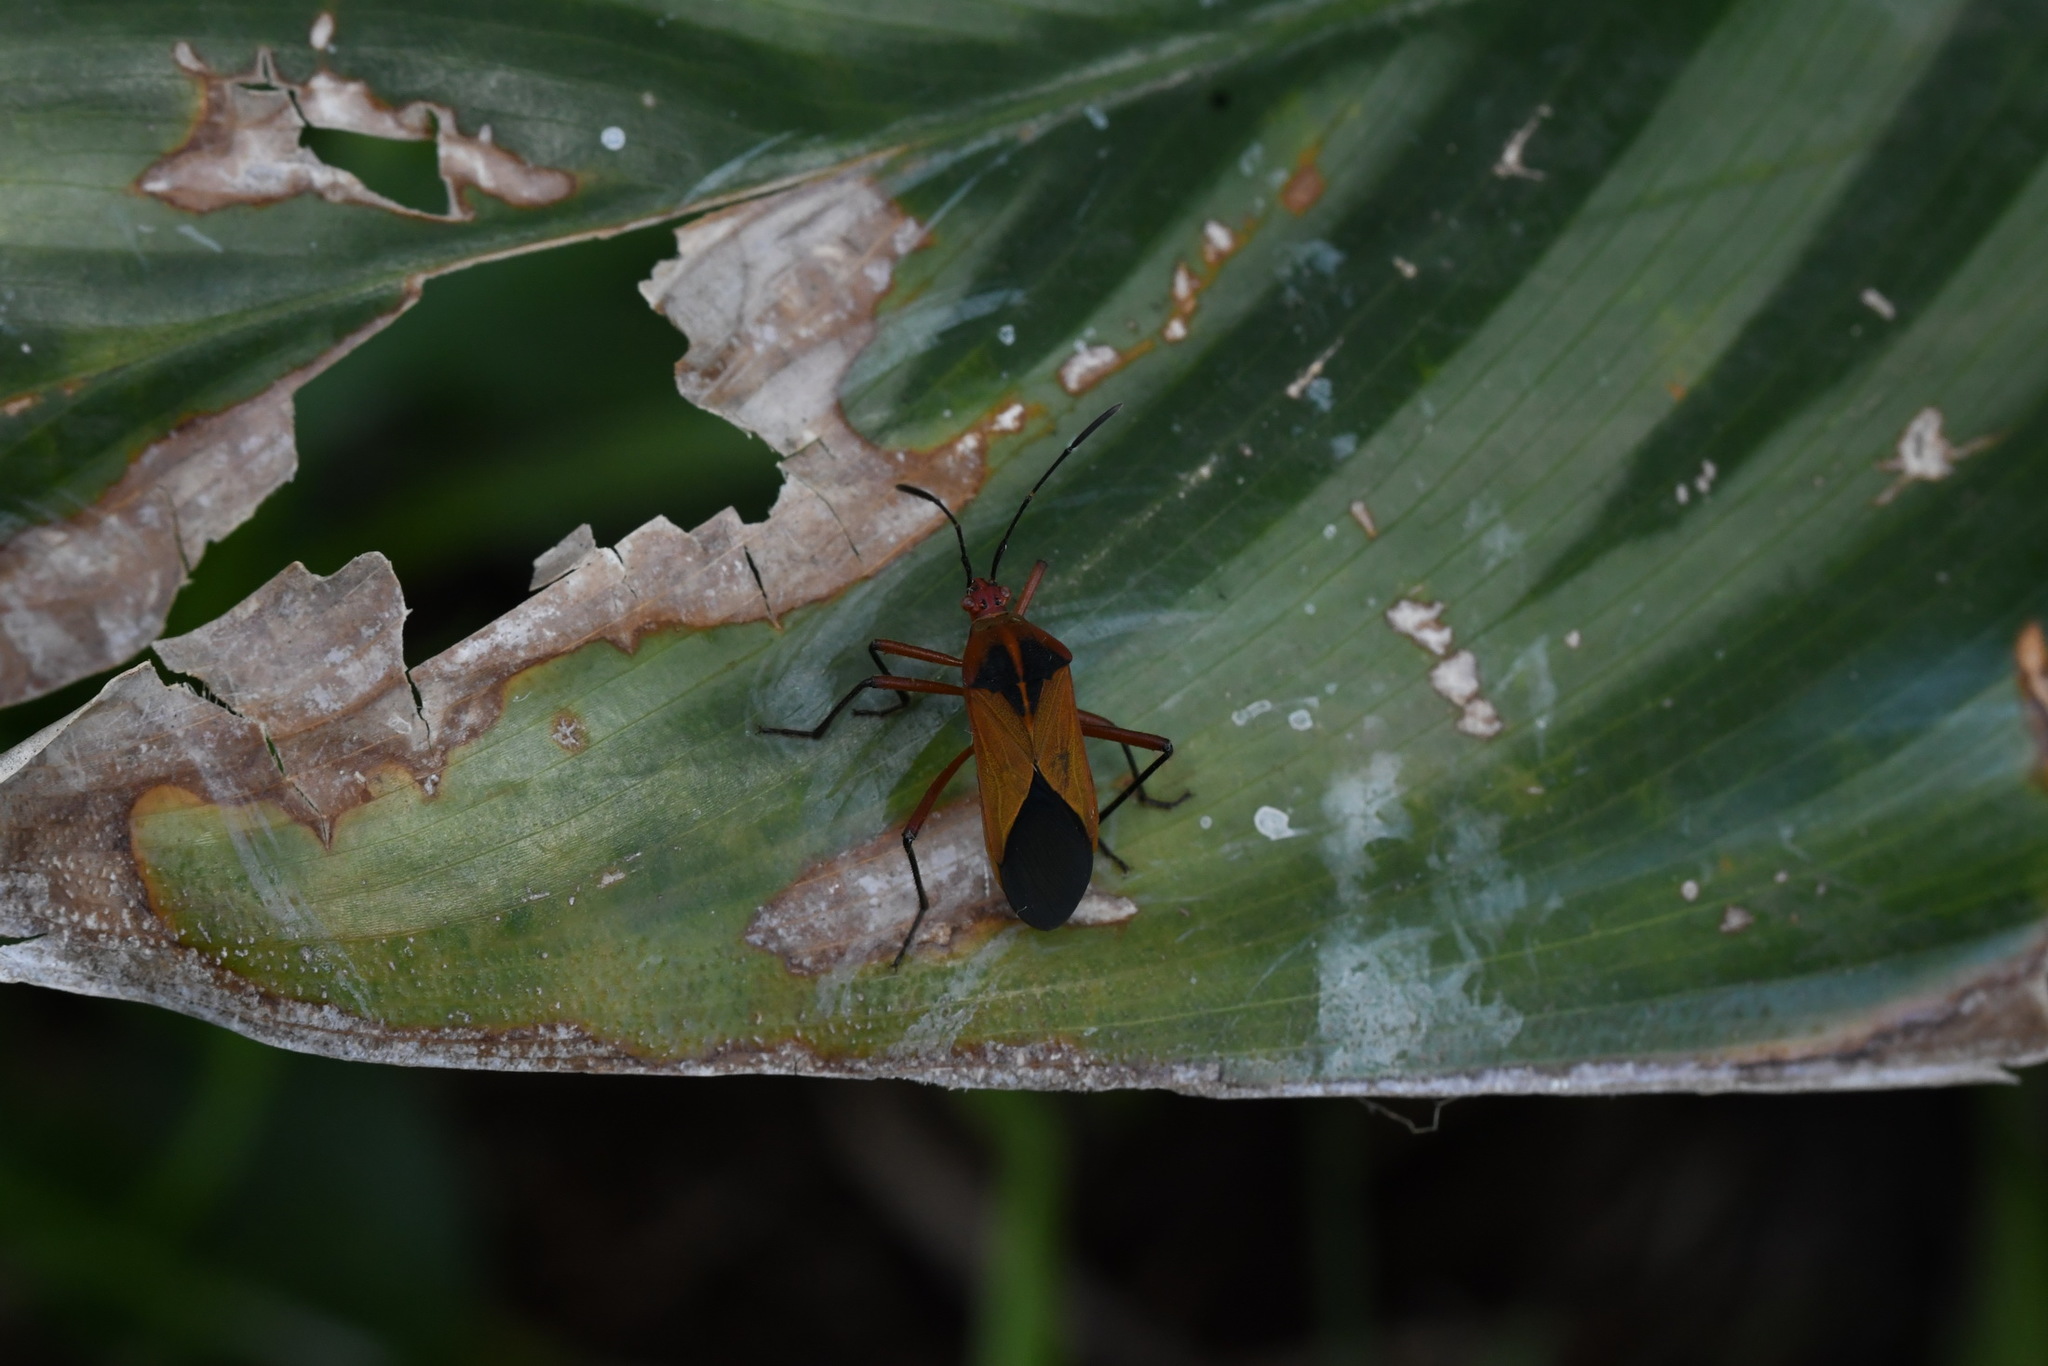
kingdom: Animalia
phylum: Arthropoda
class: Insecta
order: Hemiptera
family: Coreidae
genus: Hypselonotus
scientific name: Hypselonotus bitrianguliger
